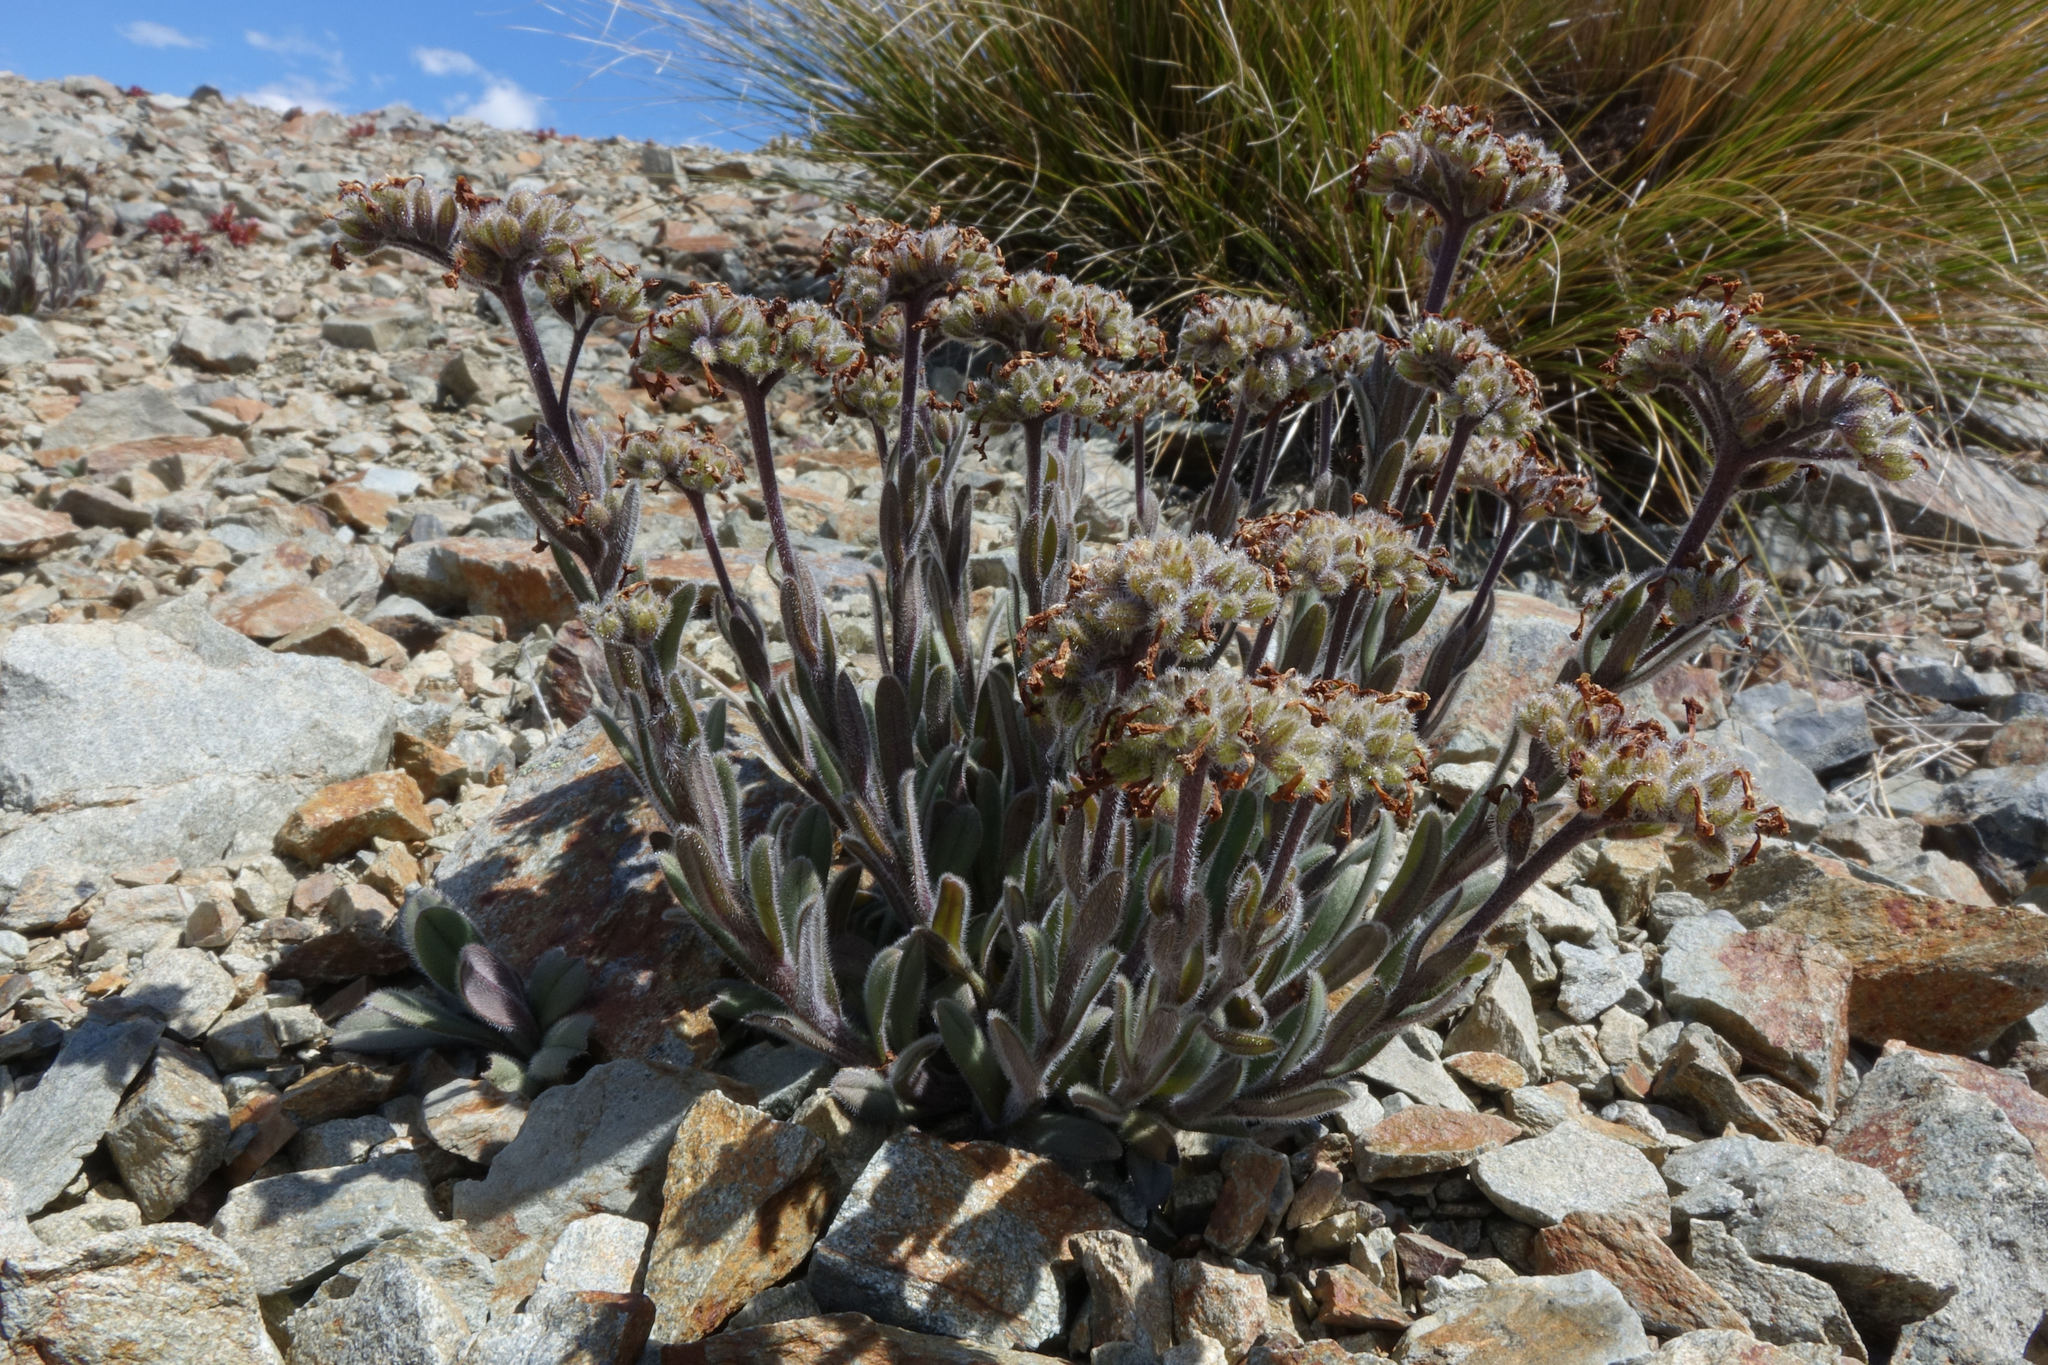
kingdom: Plantae
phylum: Tracheophyta
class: Magnoliopsida
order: Boraginales
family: Boraginaceae
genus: Myosotis
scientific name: Myosotis traversii
